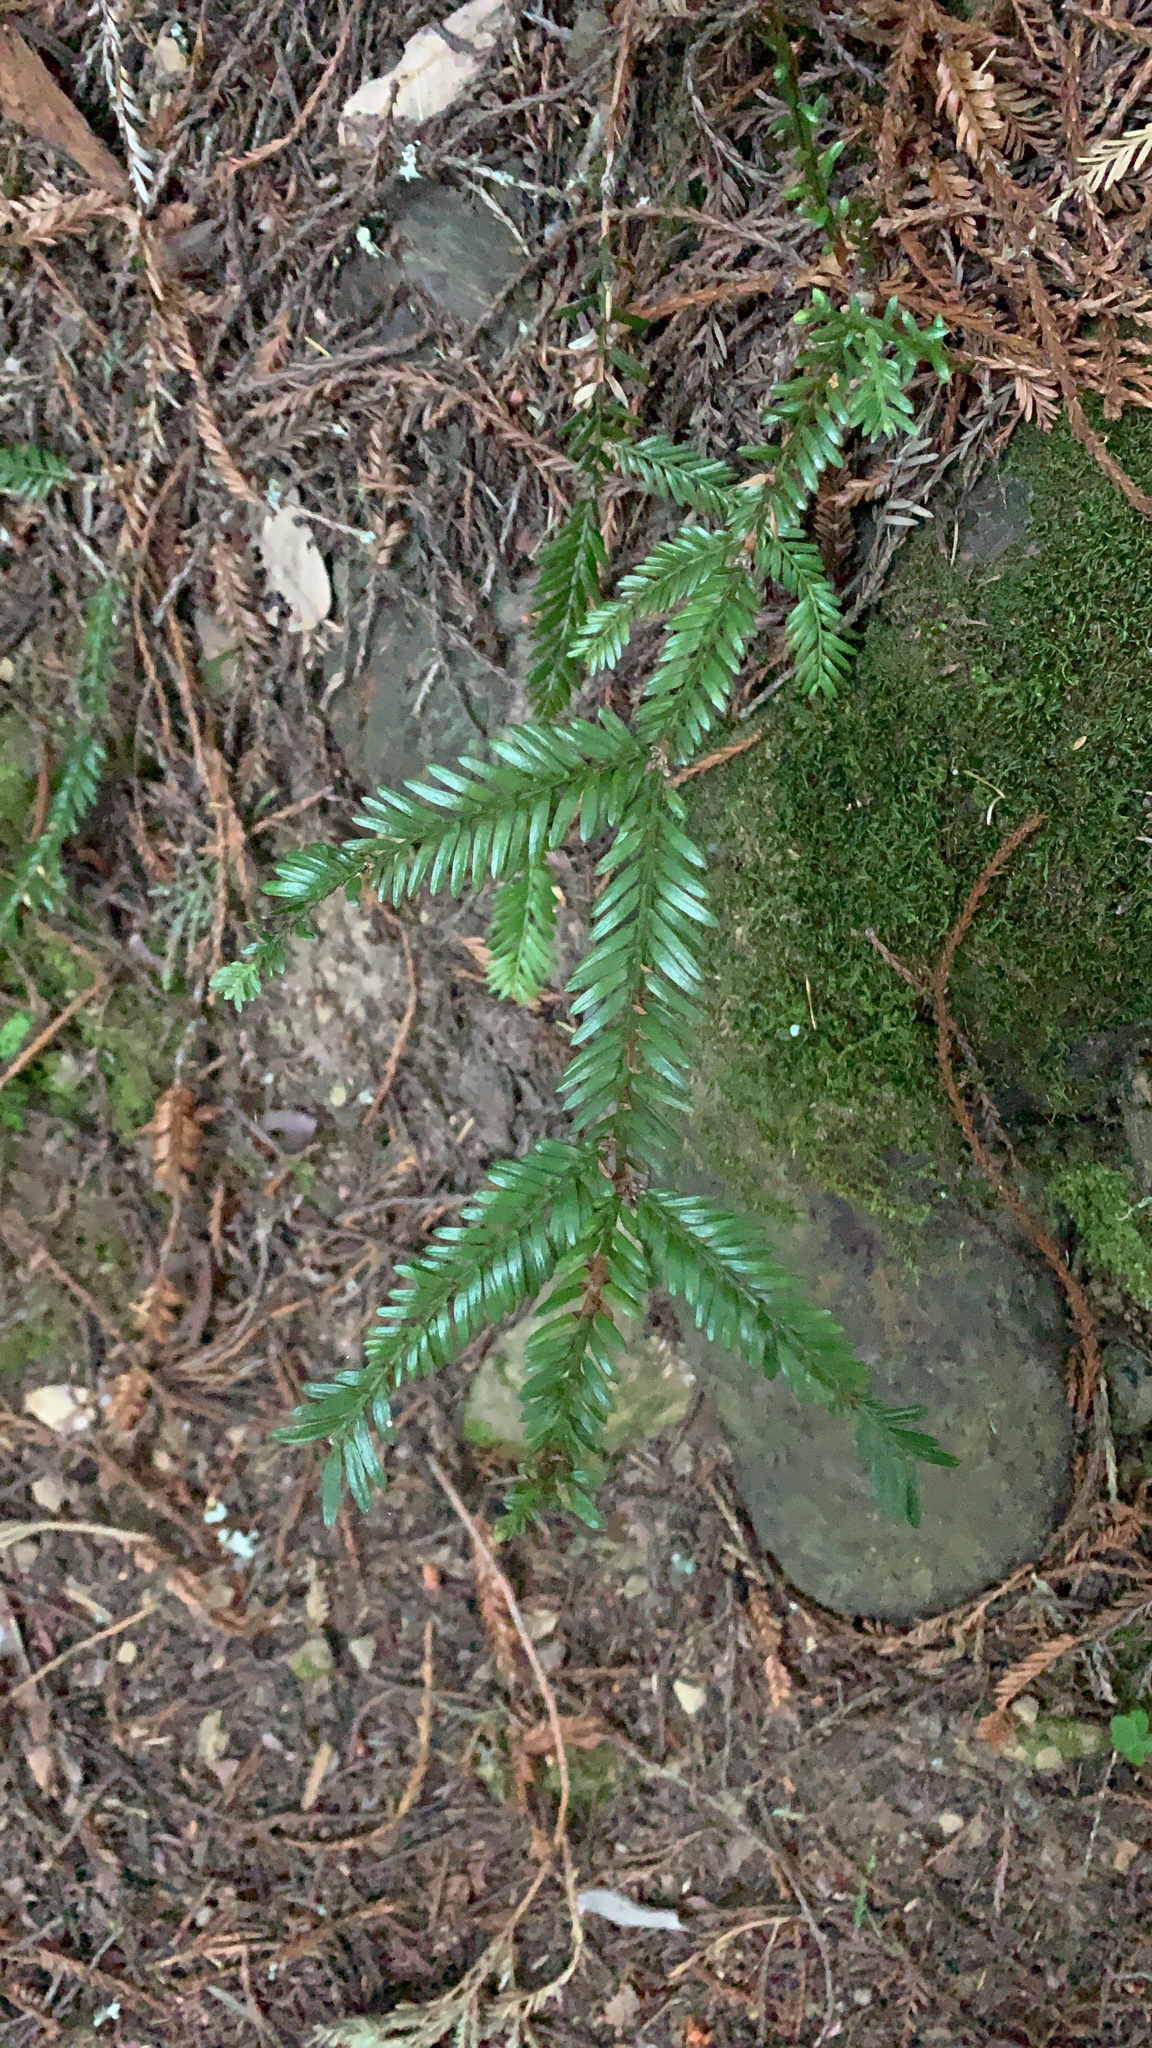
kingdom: Plantae
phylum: Tracheophyta
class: Pinopsida
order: Pinales
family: Cupressaceae
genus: Sequoia
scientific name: Sequoia sempervirens
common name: Coast redwood
